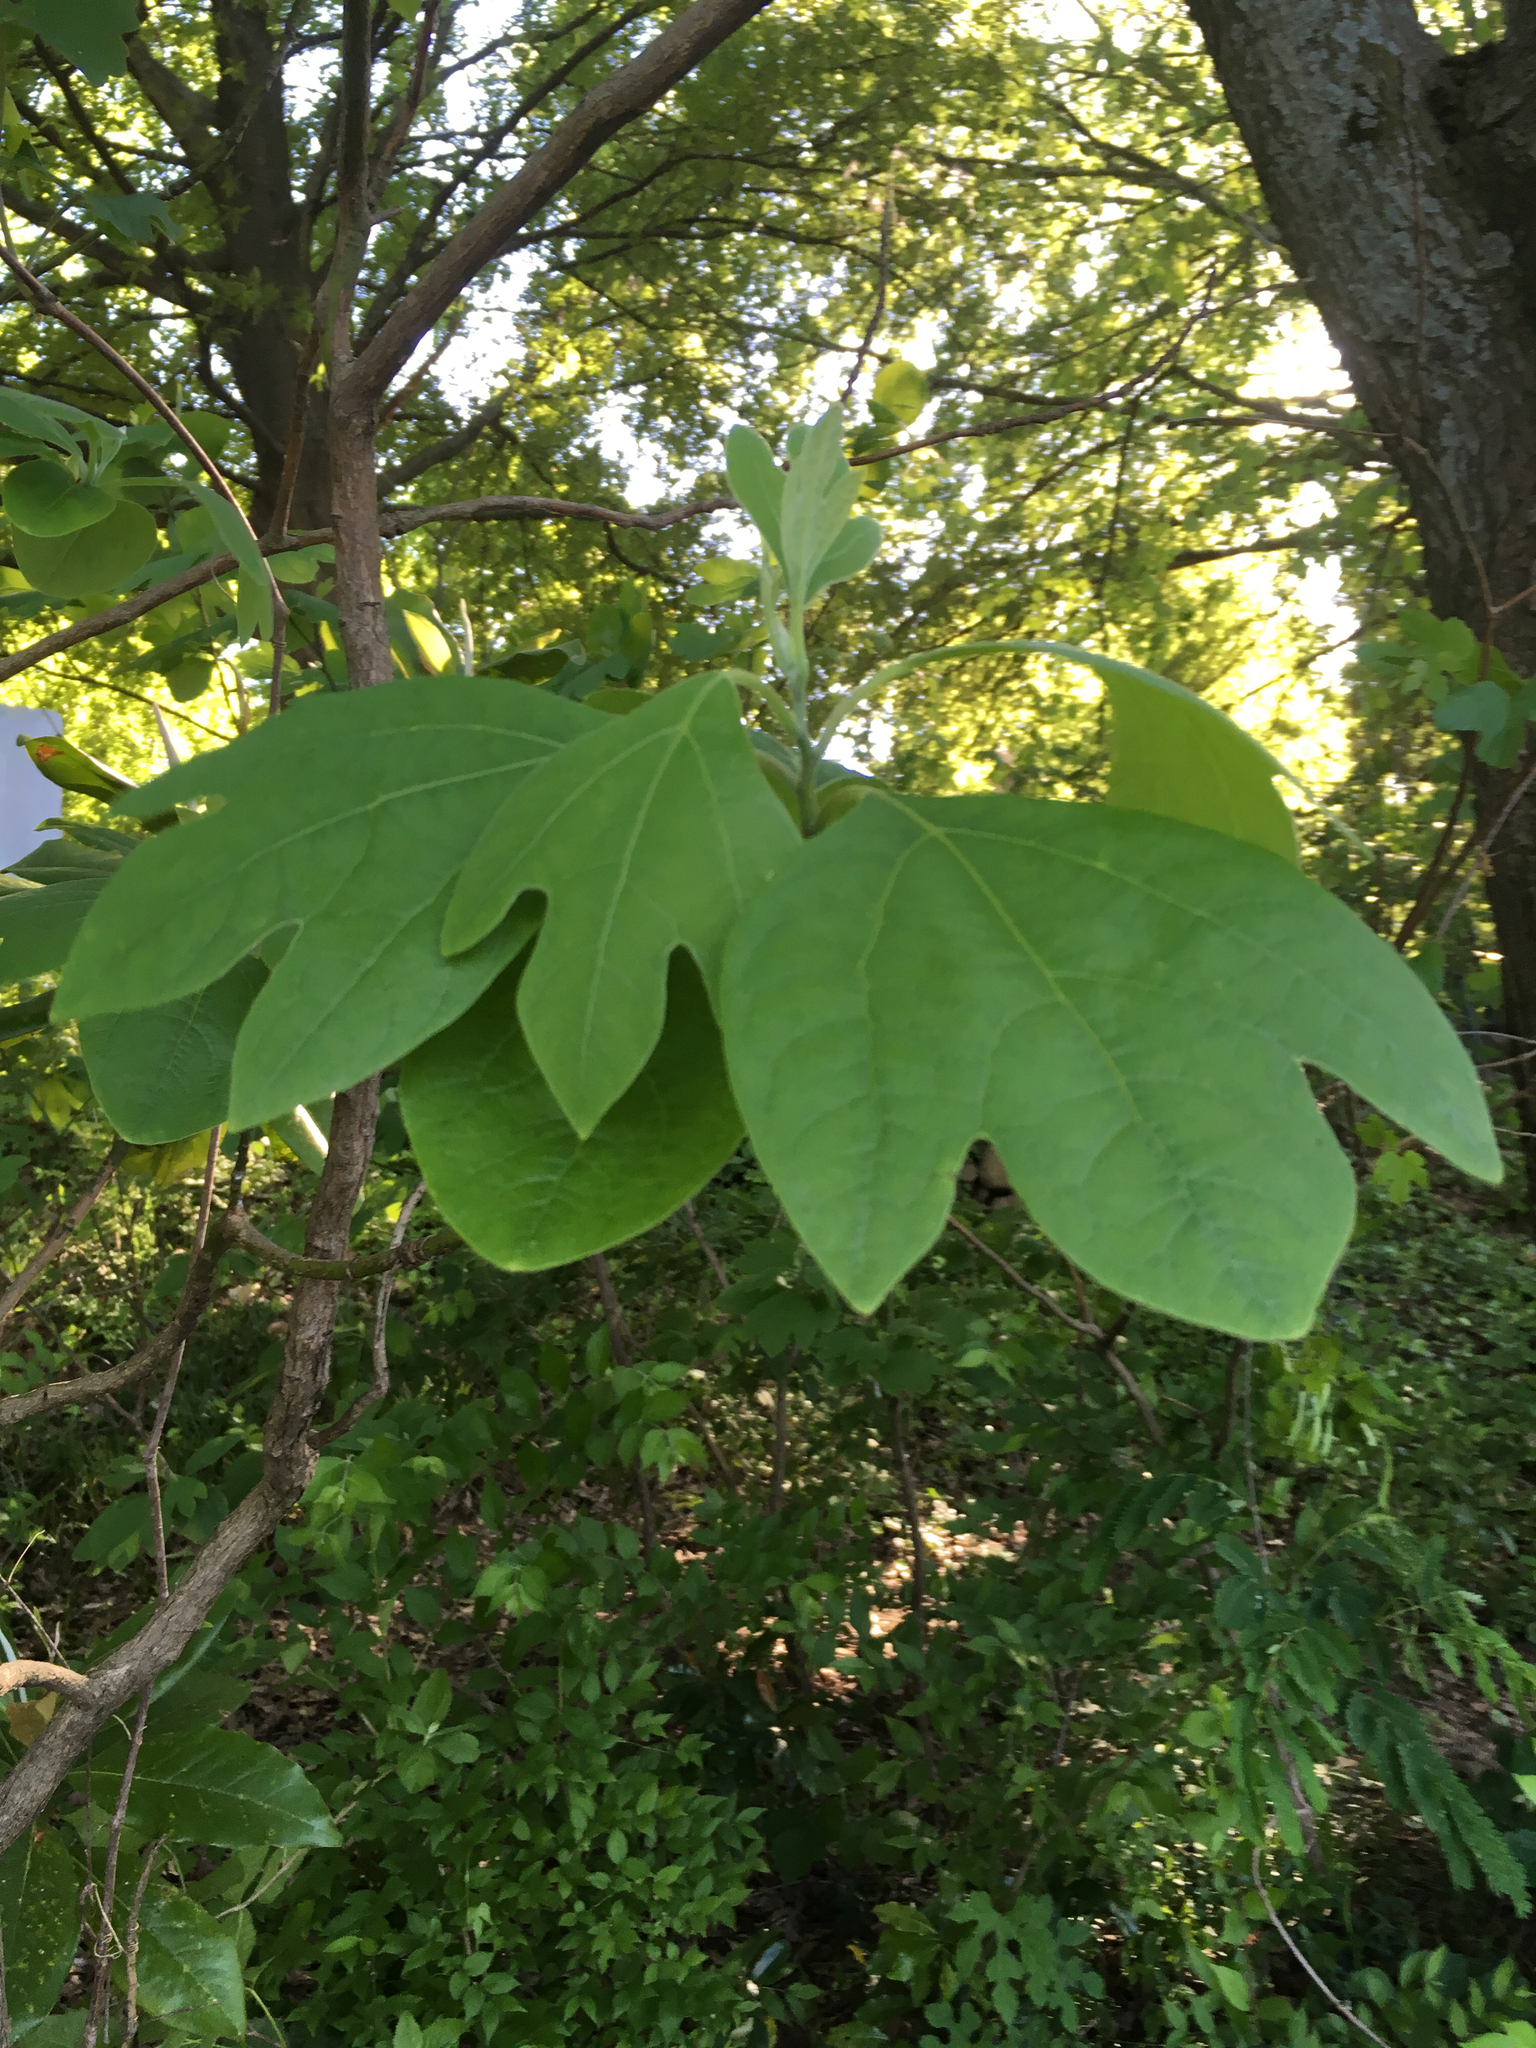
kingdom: Plantae
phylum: Tracheophyta
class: Magnoliopsida
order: Laurales
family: Lauraceae
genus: Sassafras
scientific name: Sassafras albidum
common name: Sassafras
